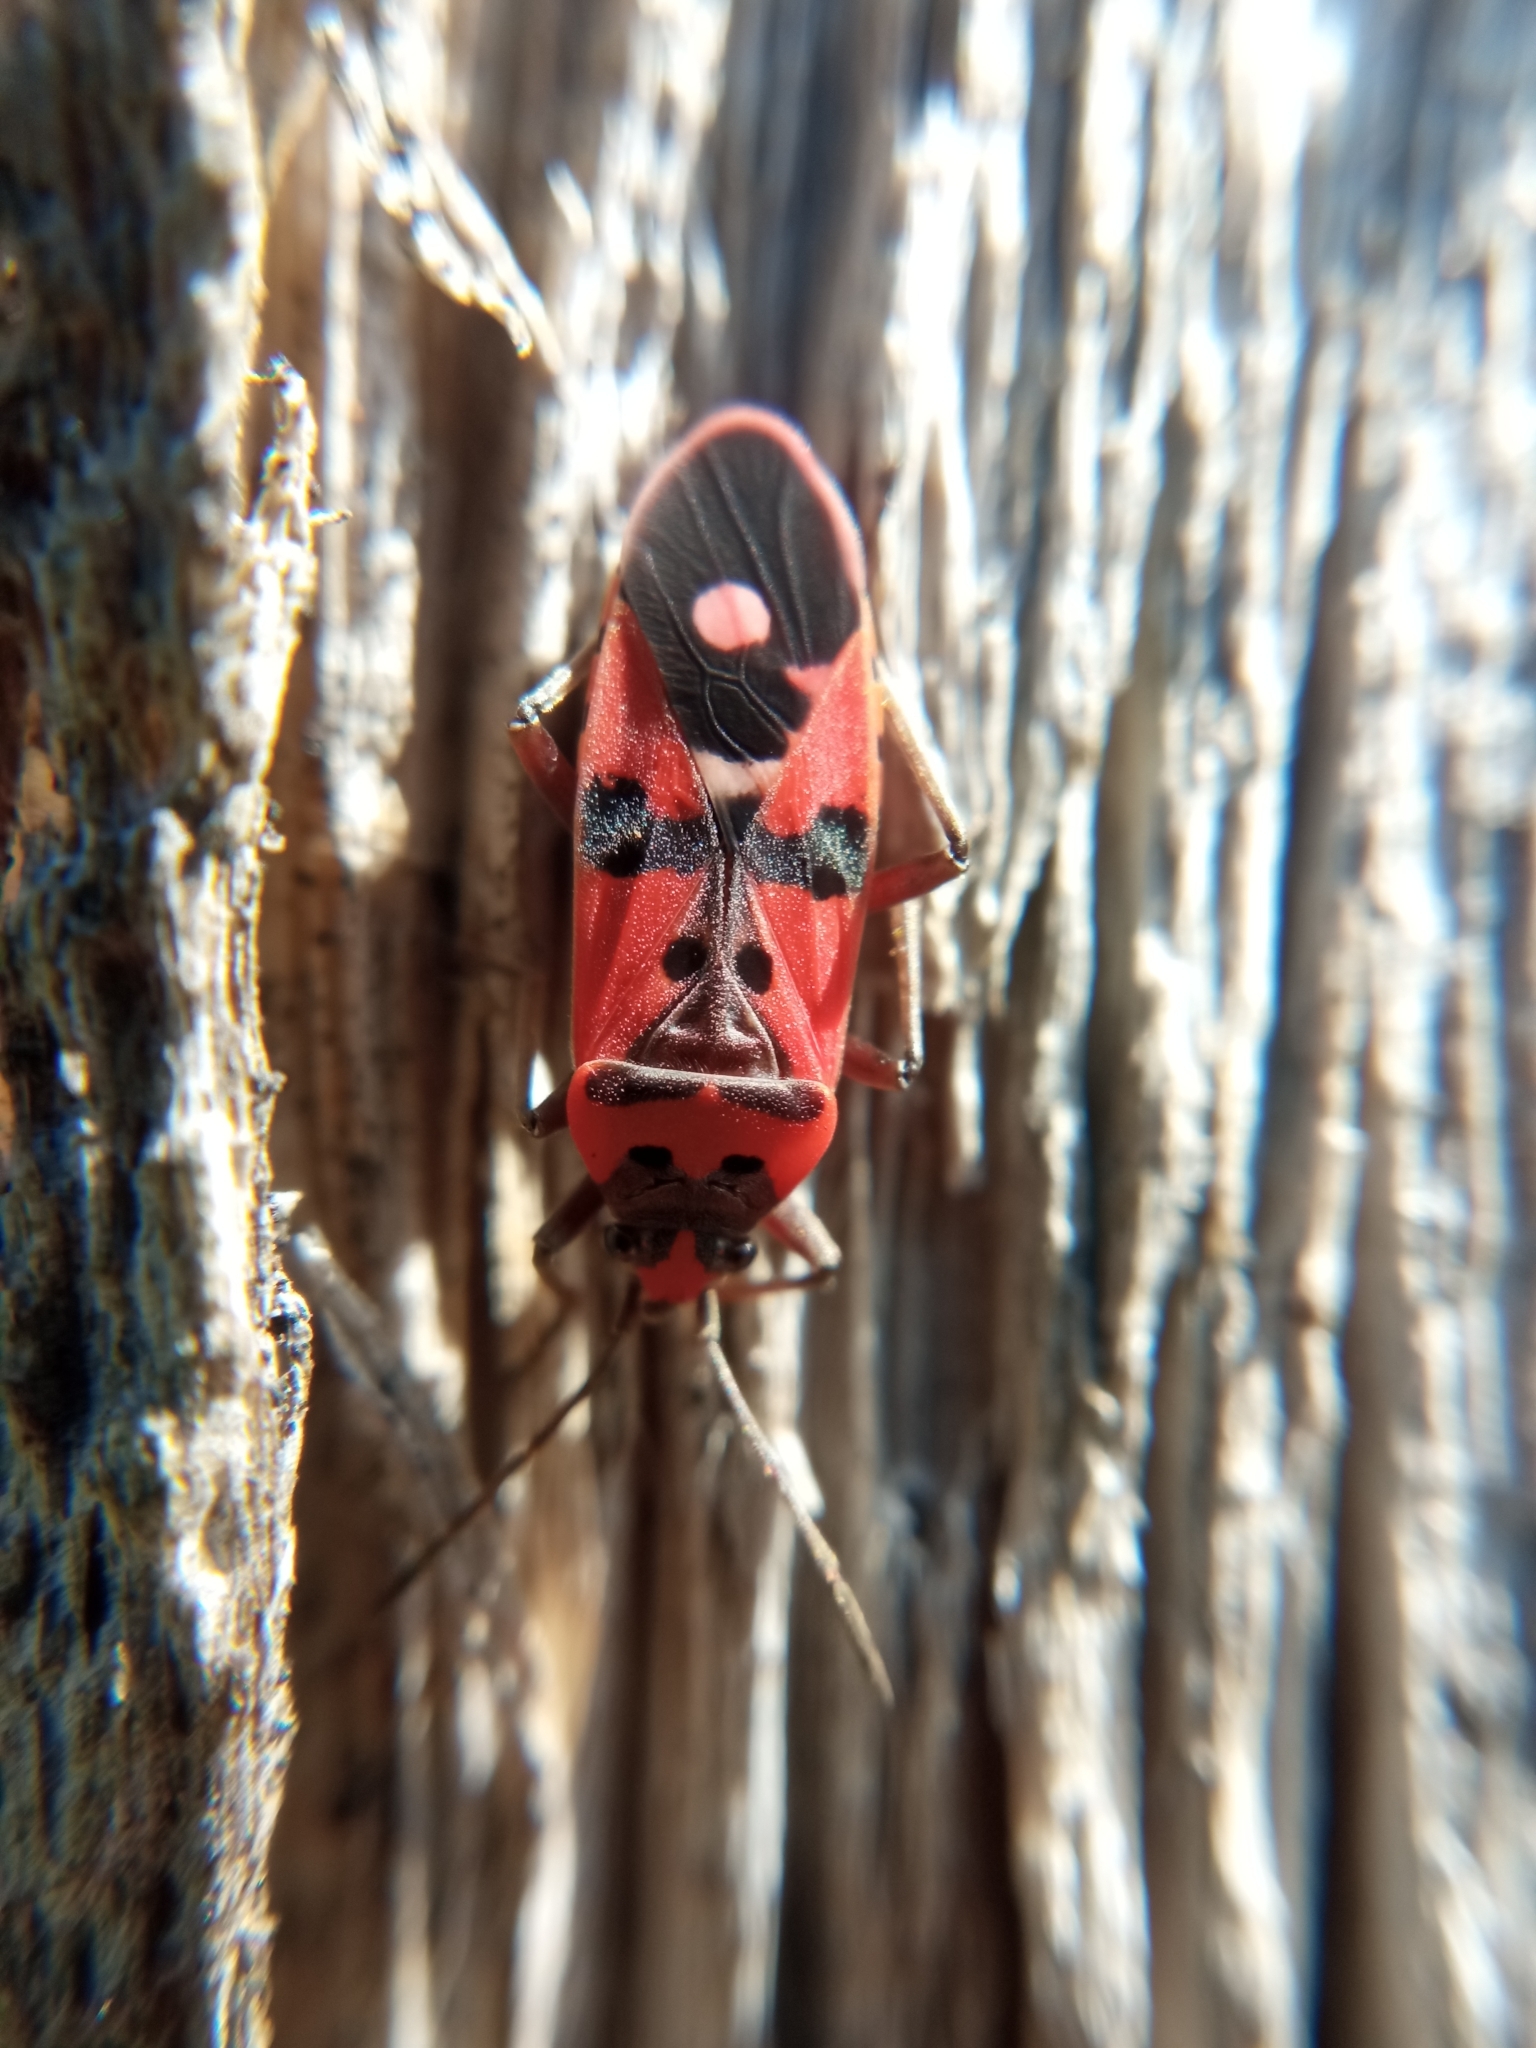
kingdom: Animalia
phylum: Arthropoda
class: Insecta
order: Hemiptera
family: Lygaeidae
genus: Lygaeus
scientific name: Lygaeus equestris
